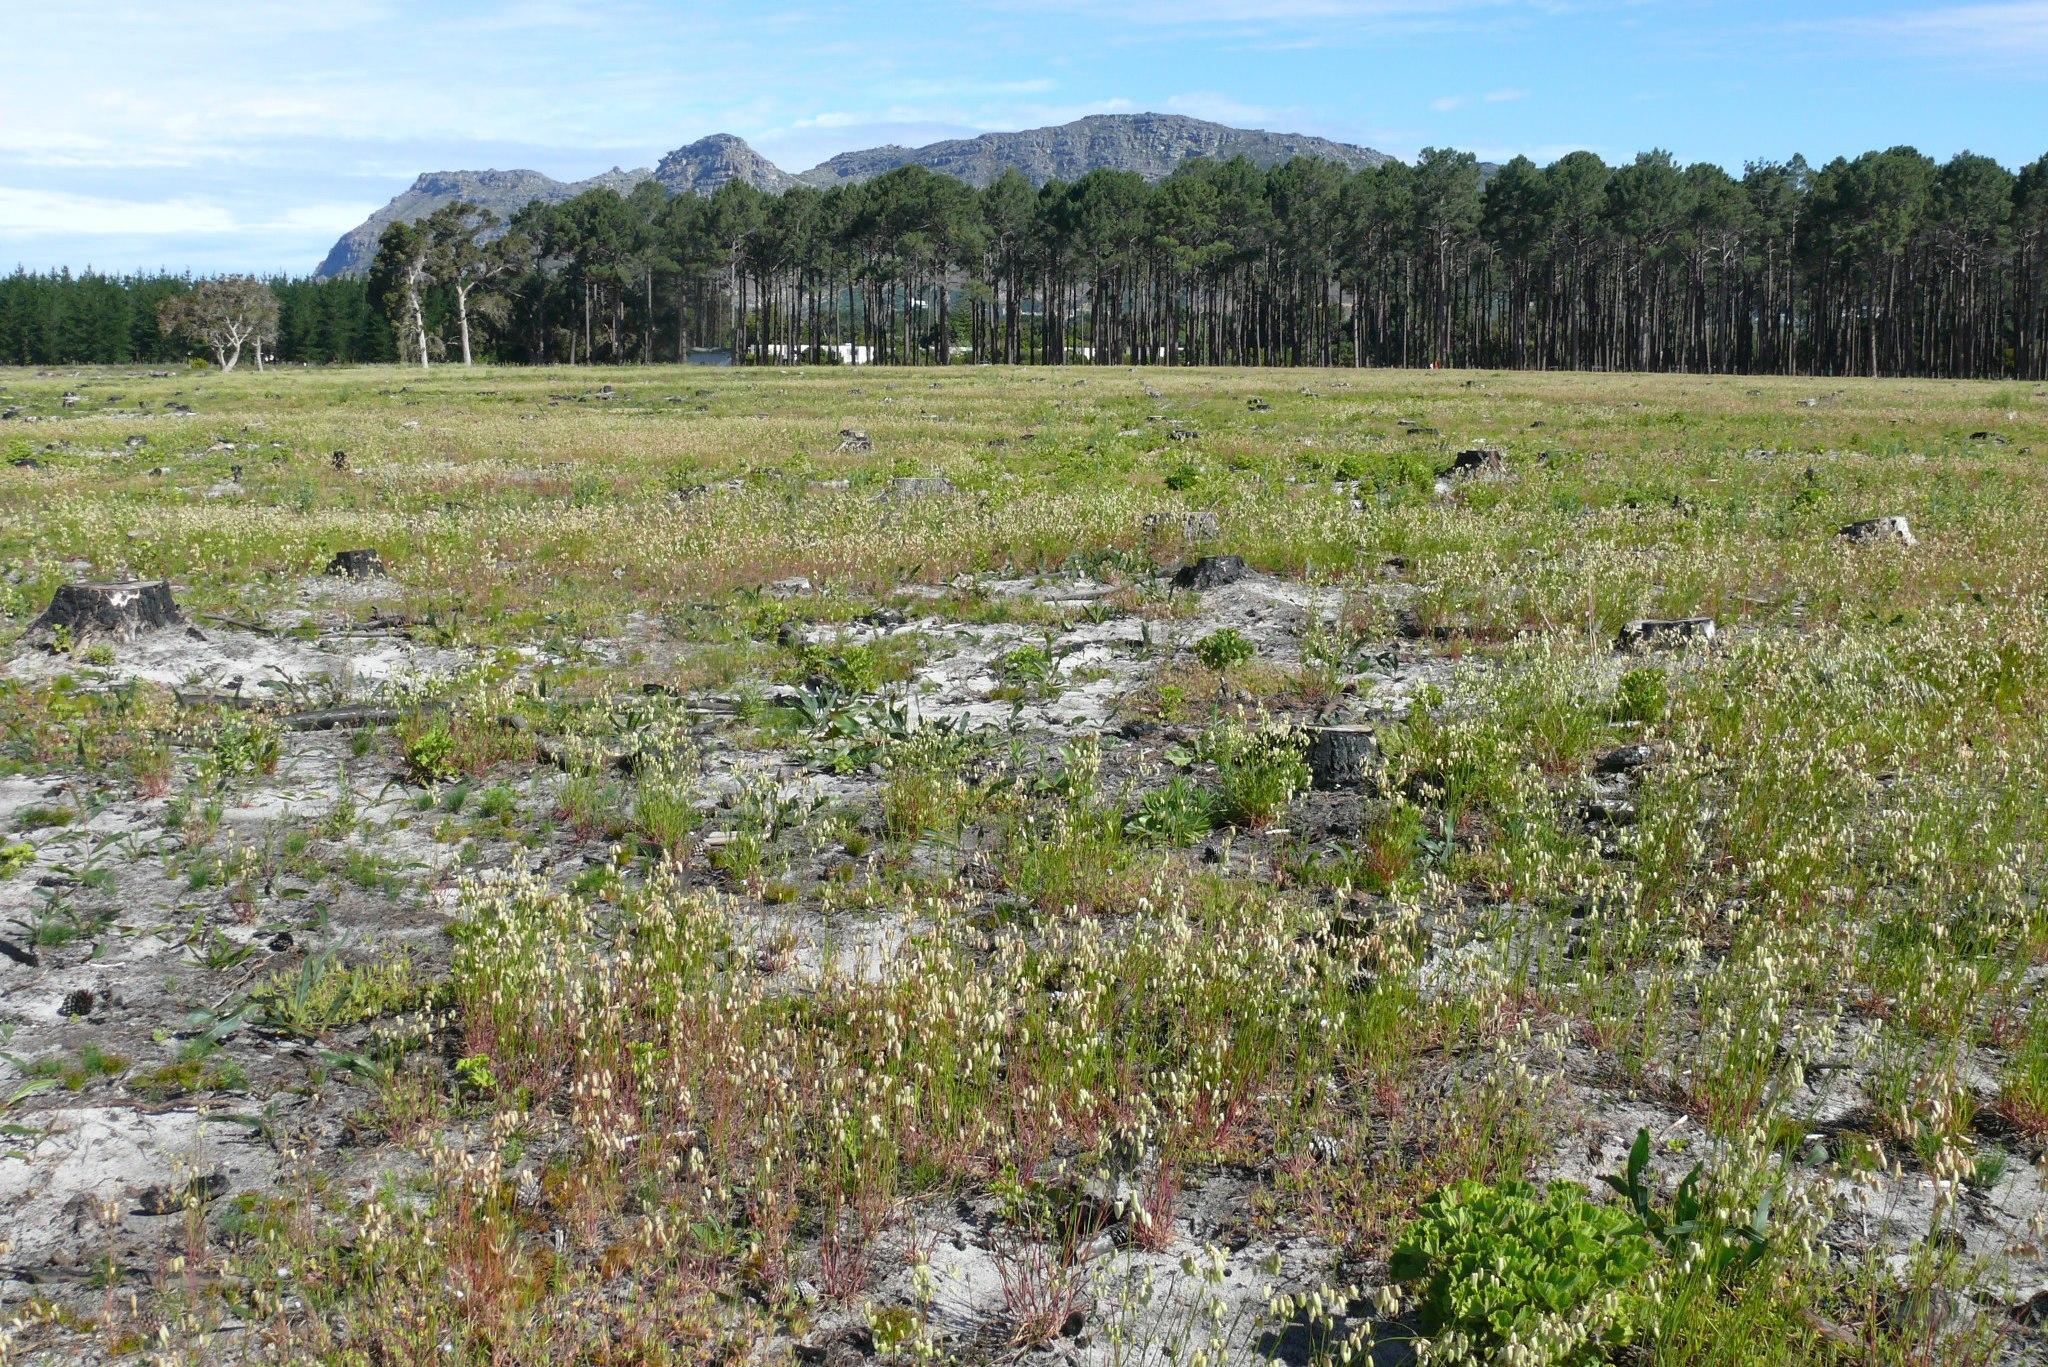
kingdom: Plantae
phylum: Tracheophyta
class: Liliopsida
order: Poales
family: Poaceae
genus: Briza
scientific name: Briza maxima
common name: Big quakinggrass
